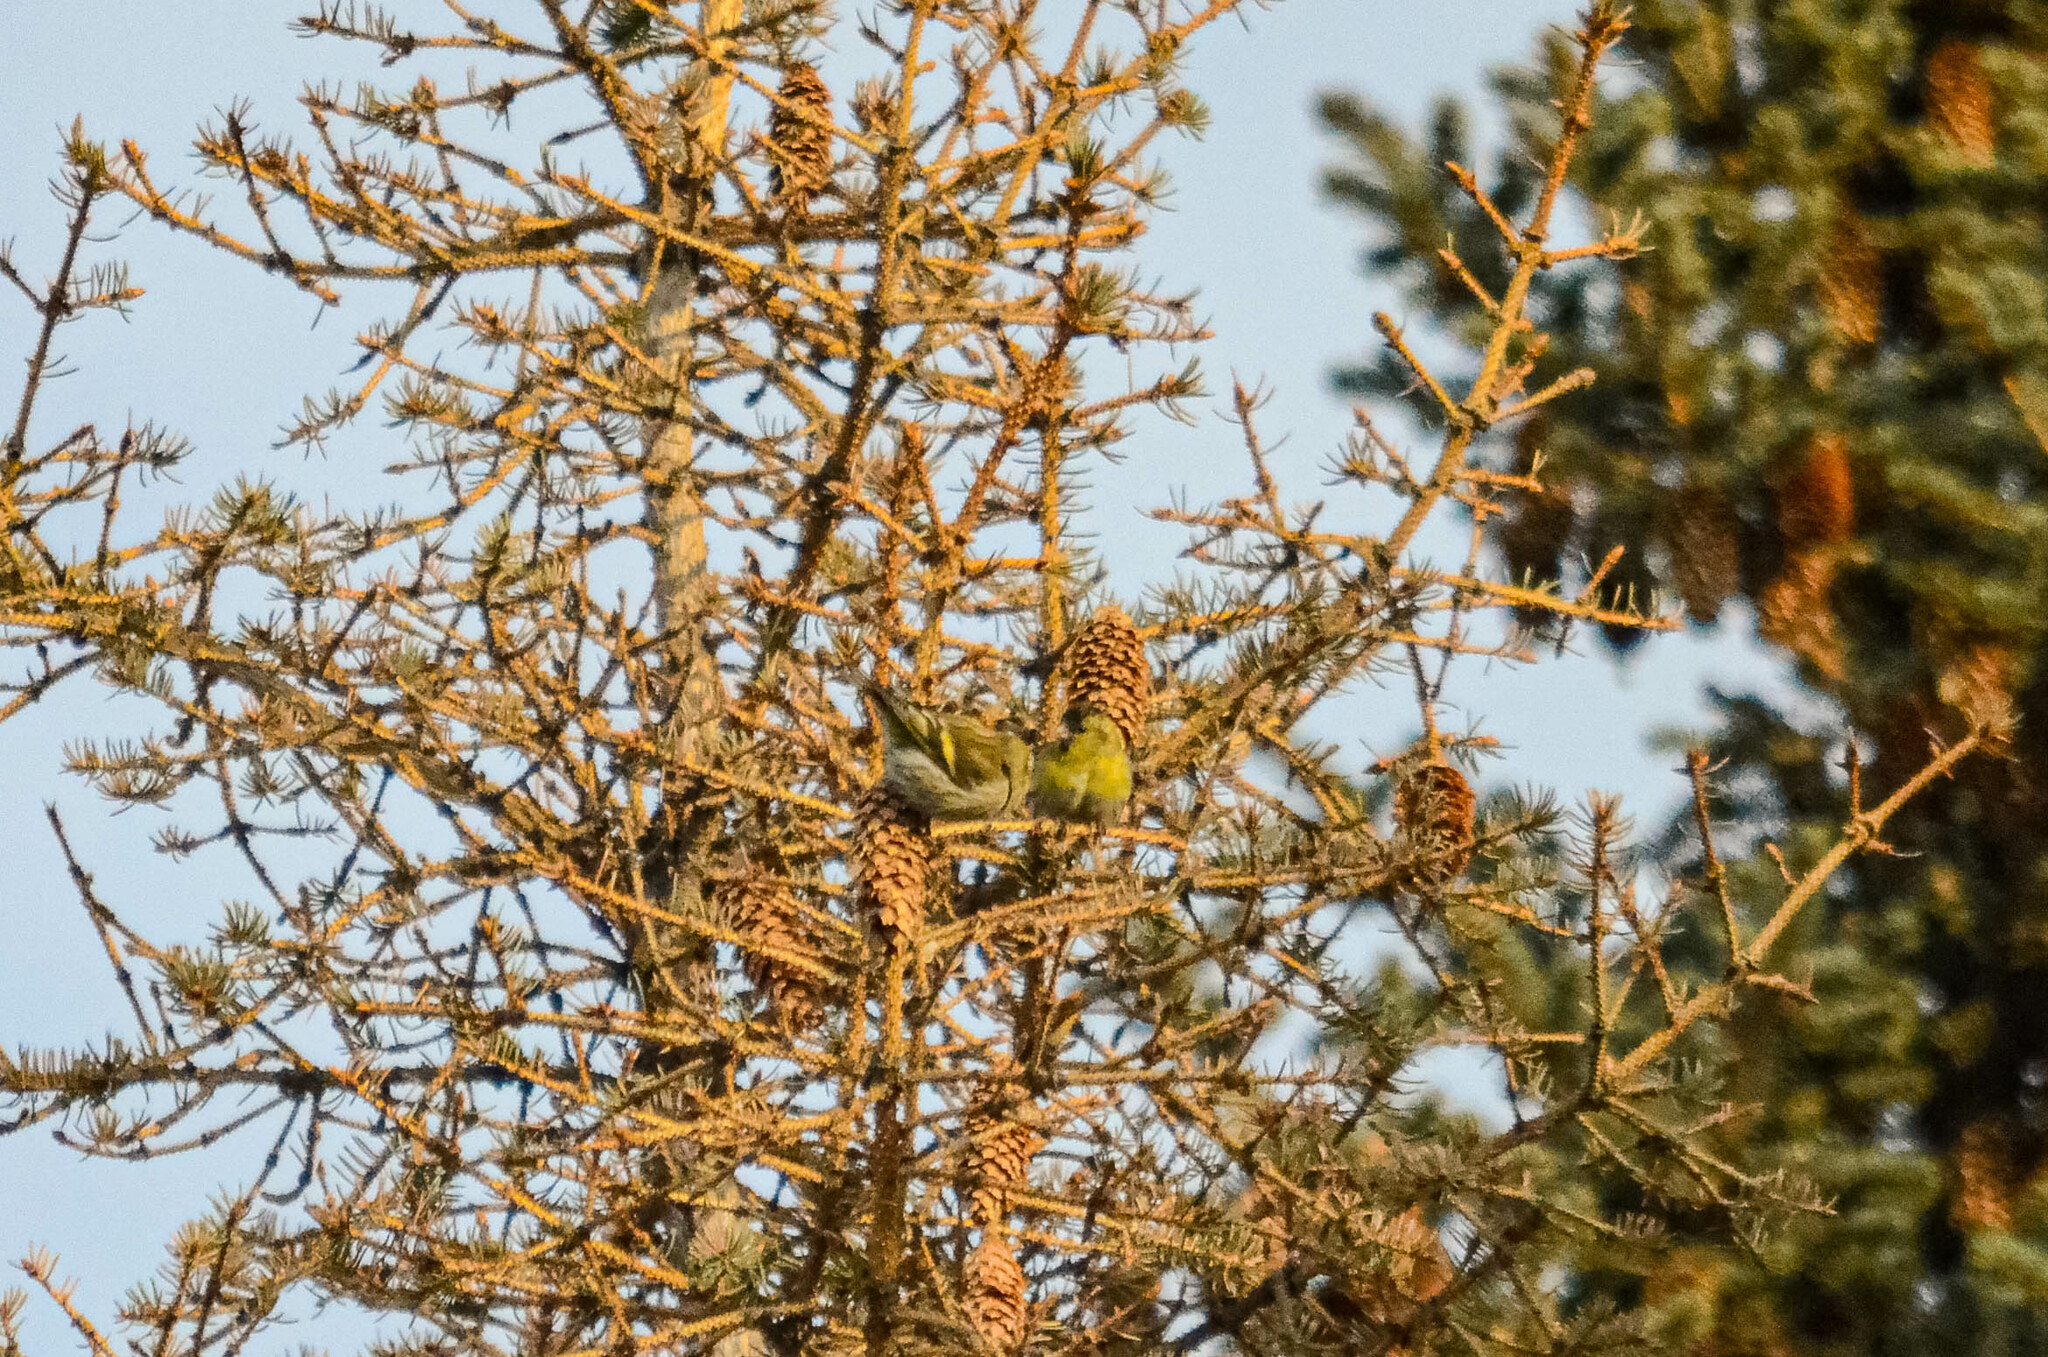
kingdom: Animalia
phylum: Chordata
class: Aves
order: Passeriformes
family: Fringillidae
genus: Spinus
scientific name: Spinus spinus
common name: Eurasian siskin
